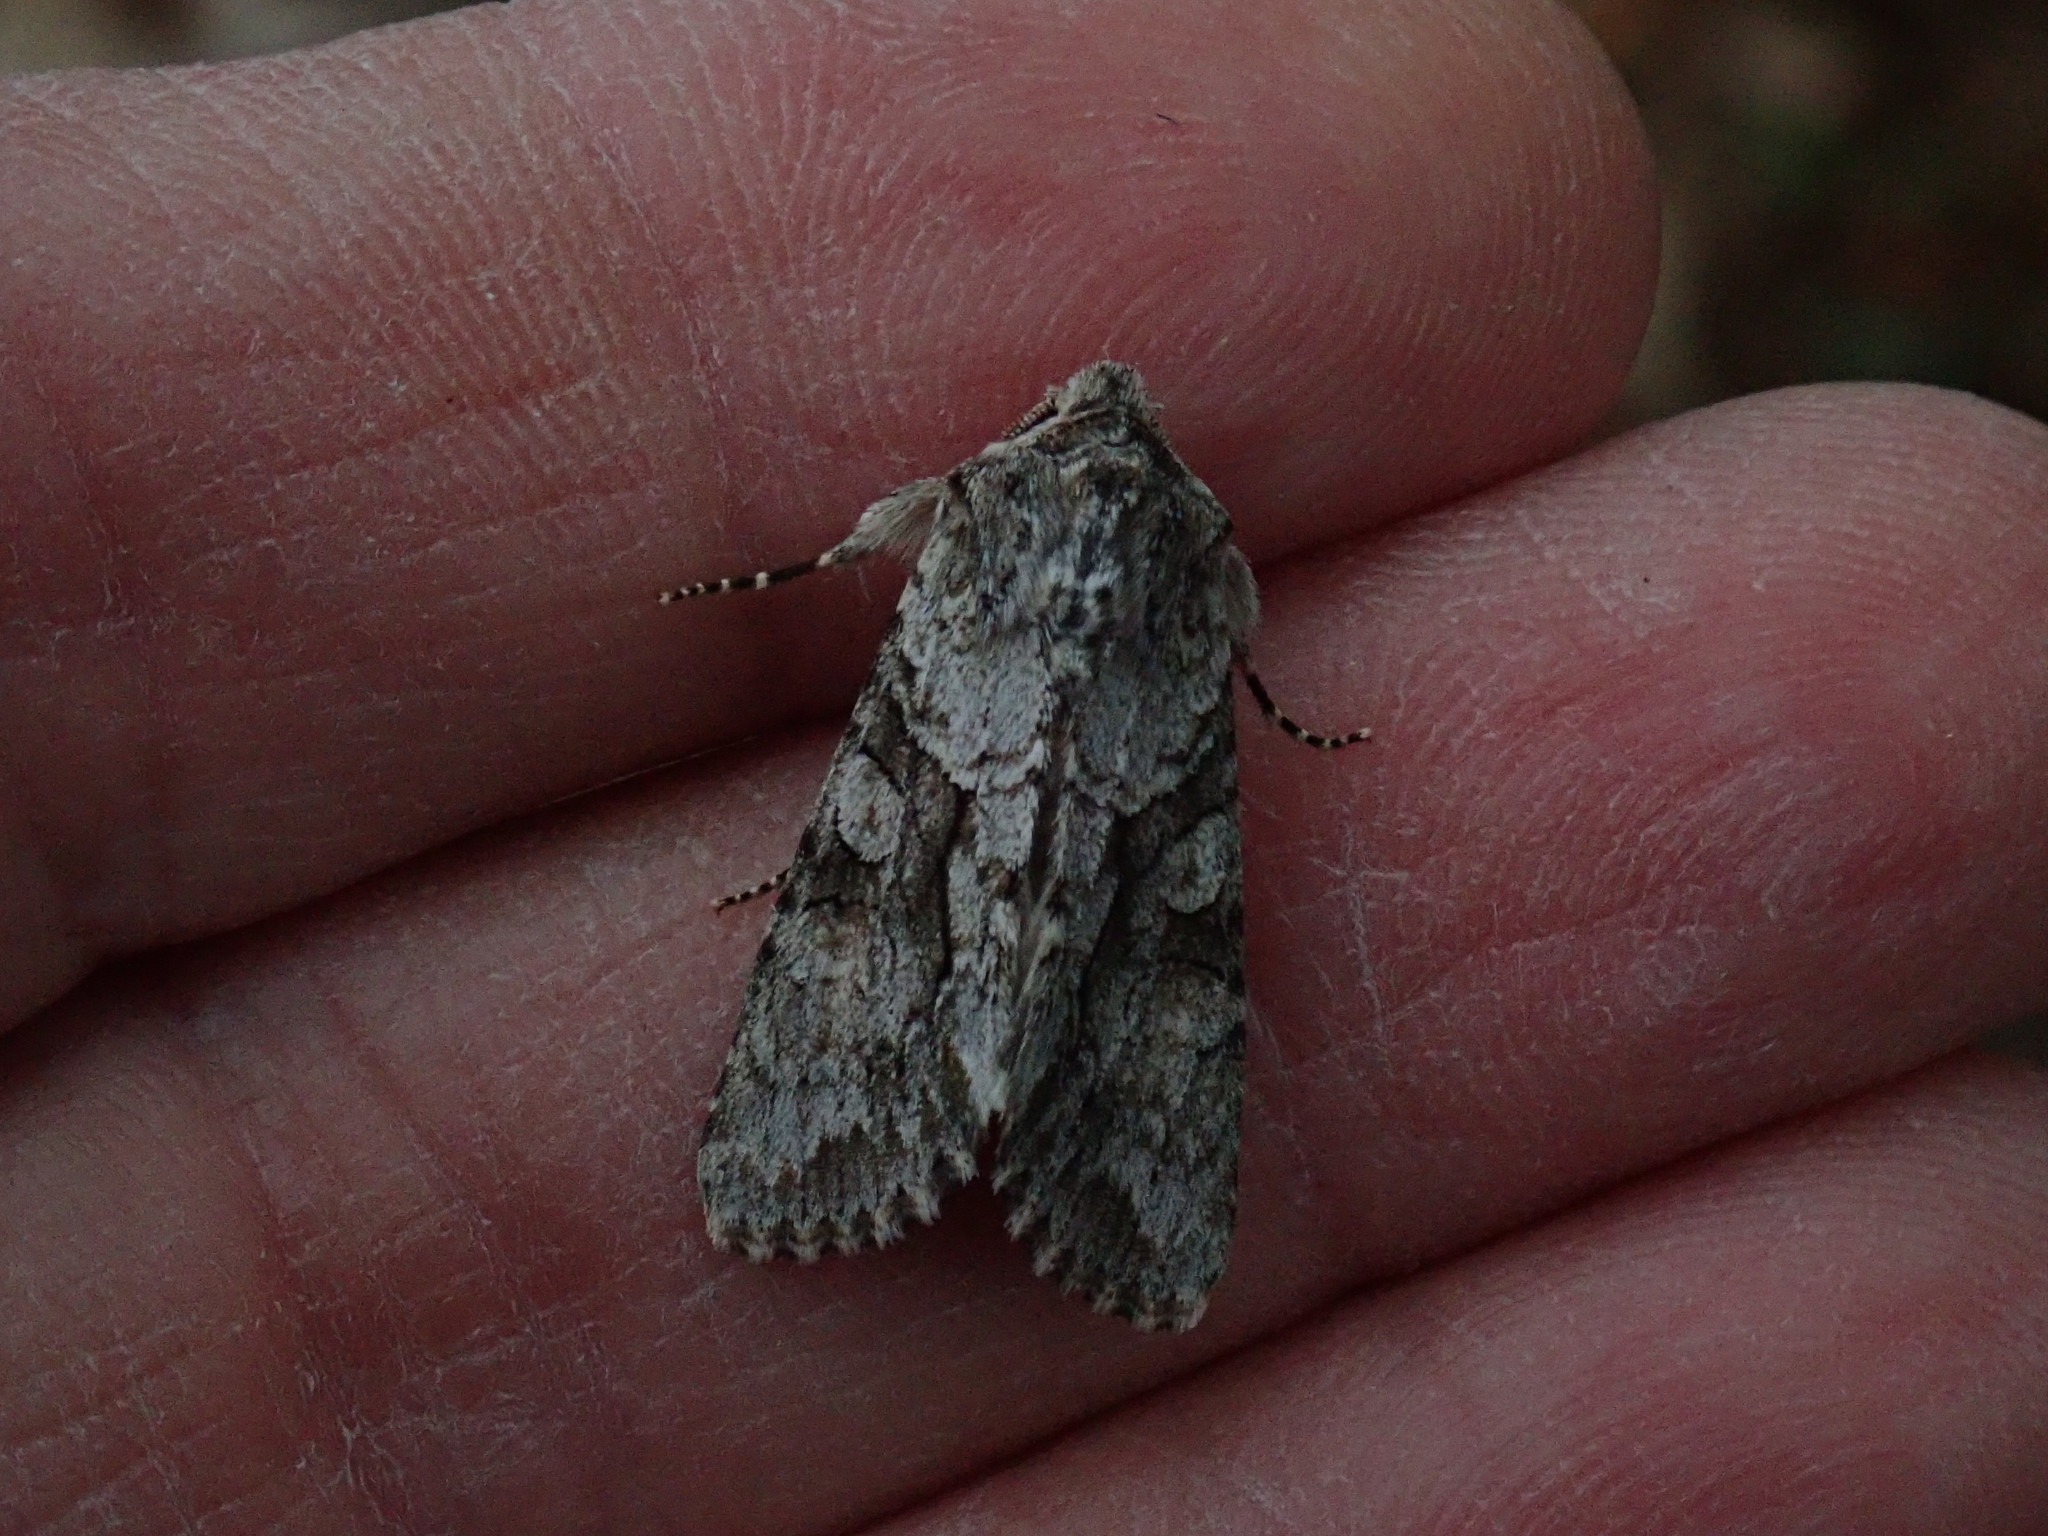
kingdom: Animalia
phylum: Arthropoda
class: Insecta
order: Lepidoptera
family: Noctuidae
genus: Achatia
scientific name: Achatia distincta
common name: Distinct quaker
